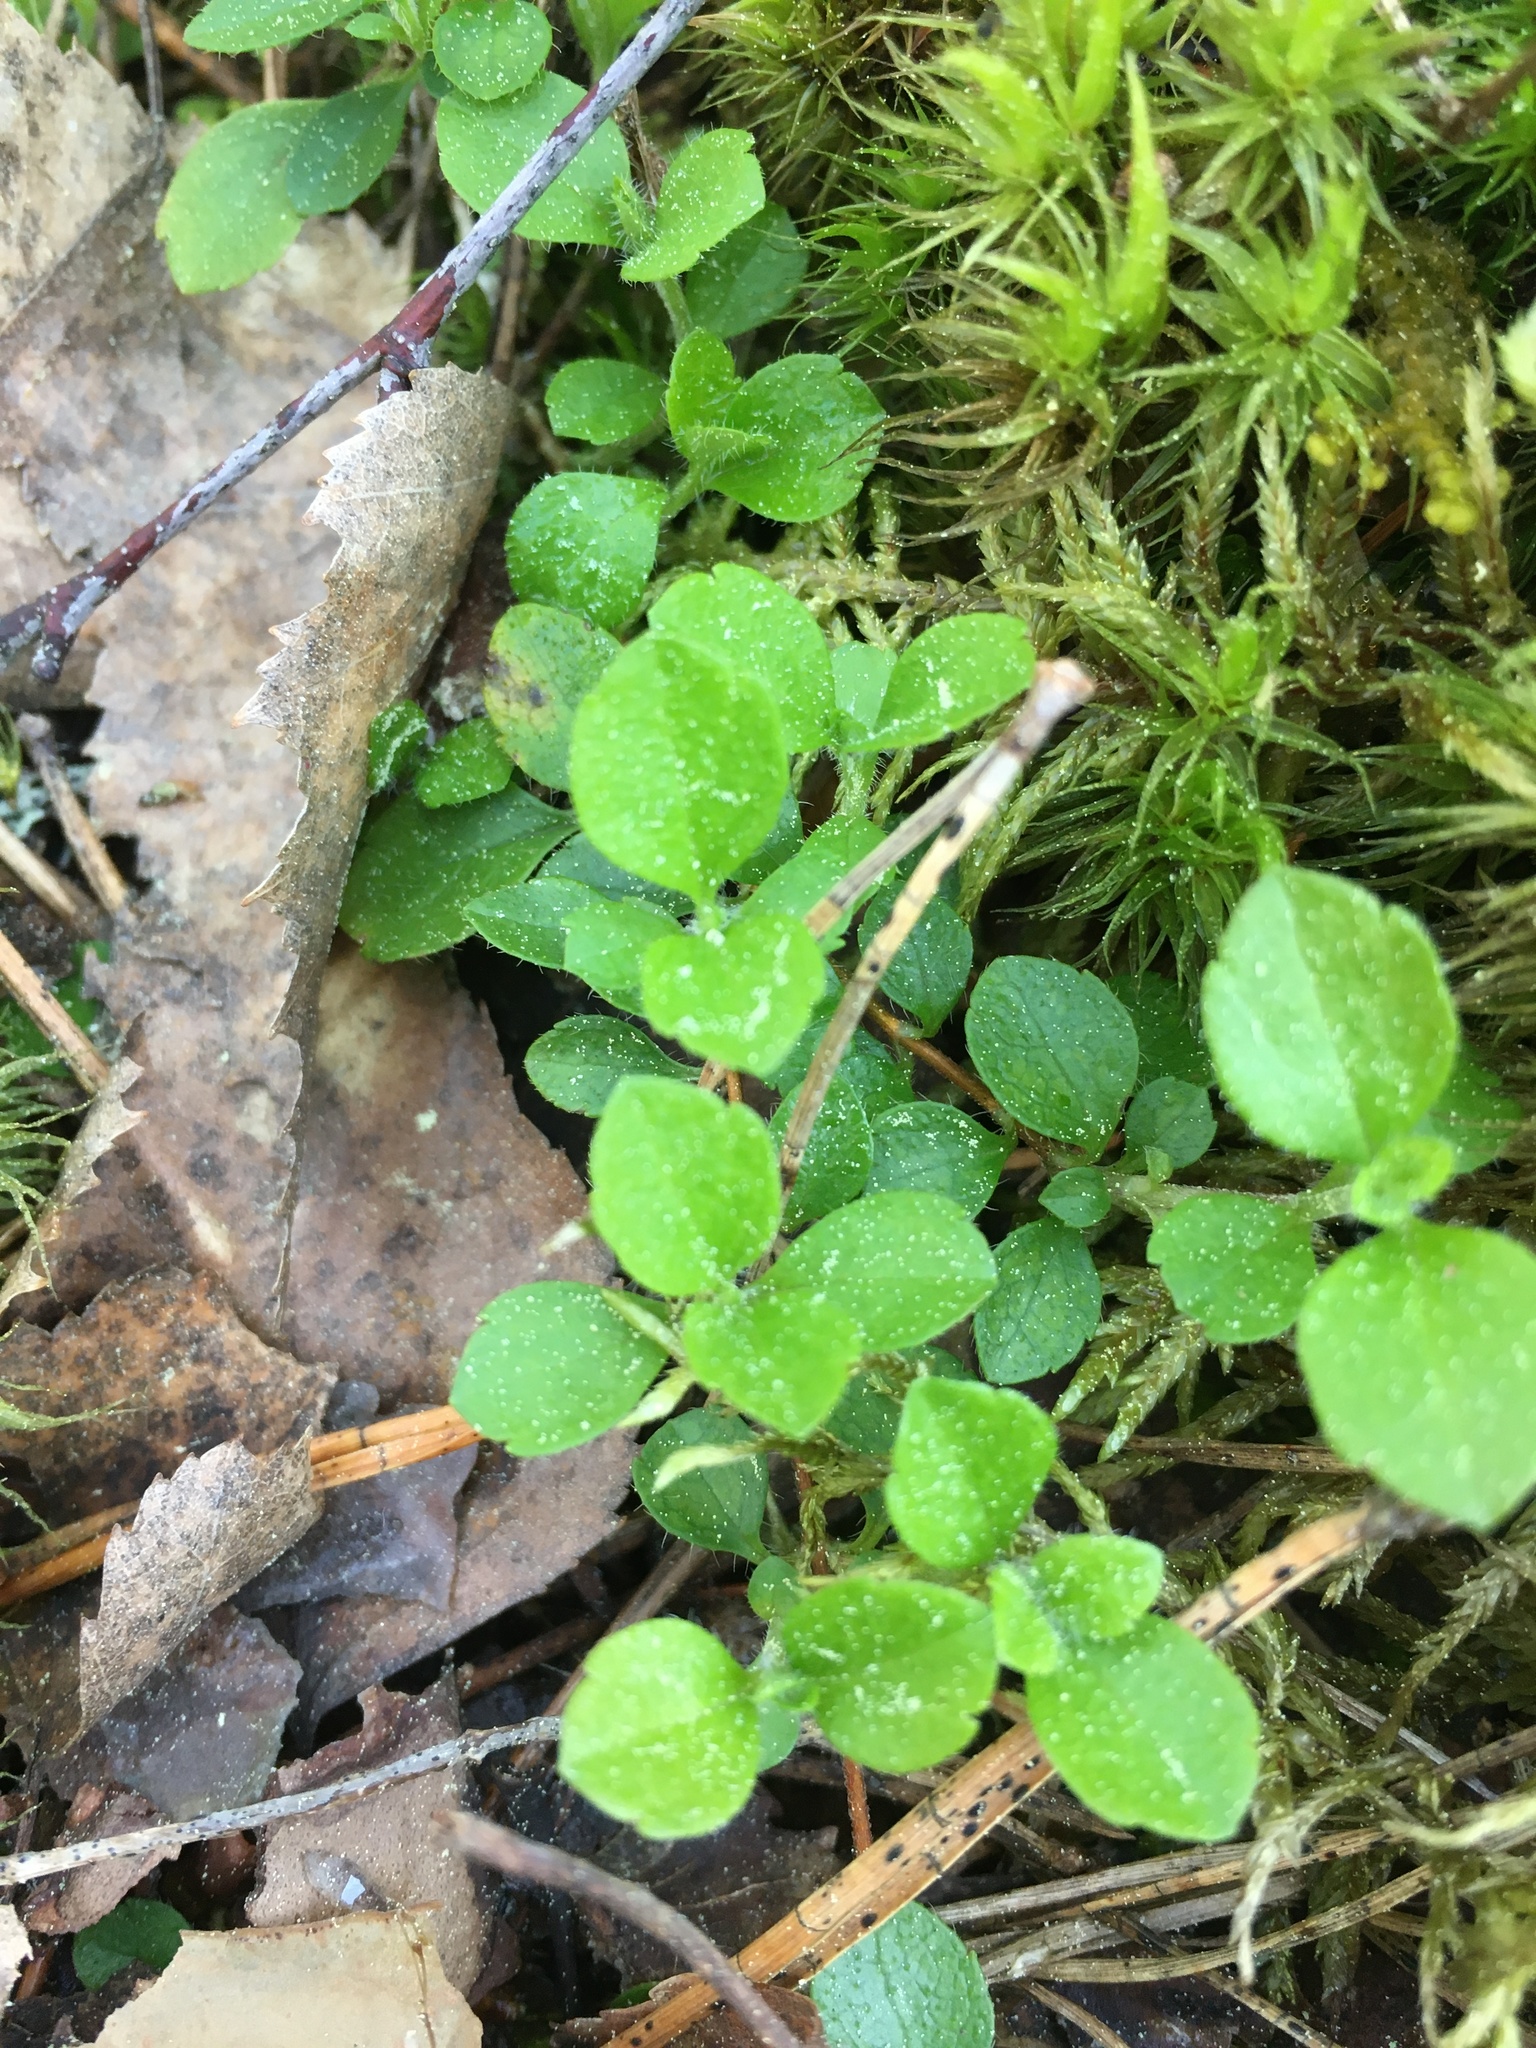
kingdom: Plantae
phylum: Tracheophyta
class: Magnoliopsida
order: Dipsacales
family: Caprifoliaceae
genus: Linnaea
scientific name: Linnaea borealis
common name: Twinflower
